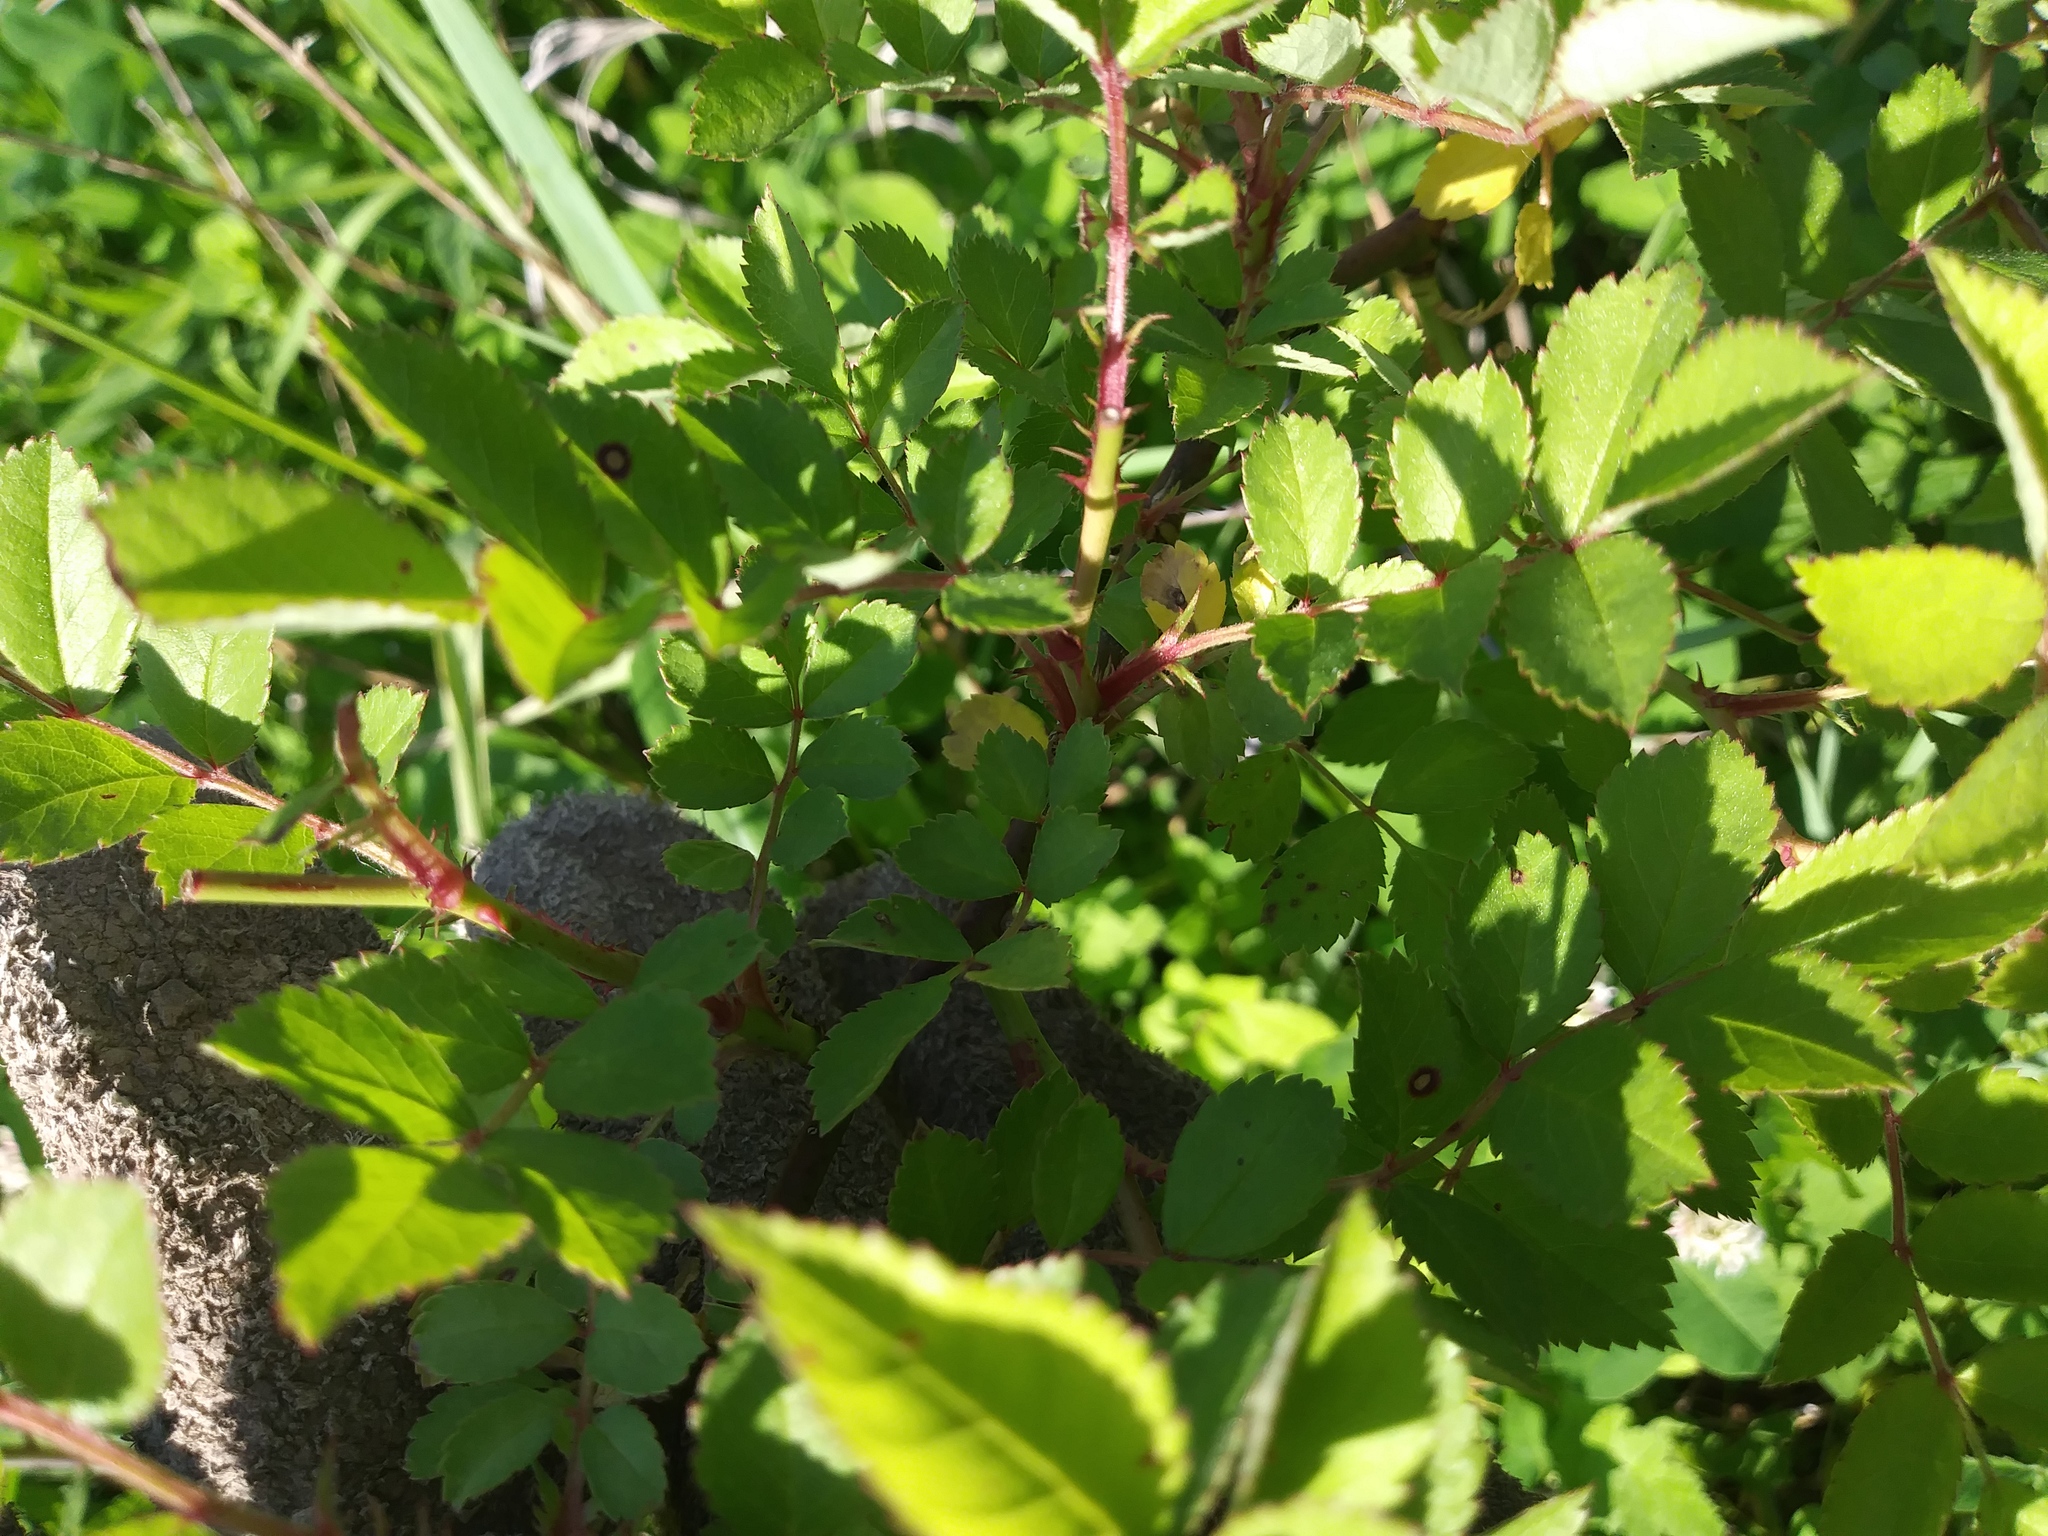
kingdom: Plantae
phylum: Tracheophyta
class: Magnoliopsida
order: Rosales
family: Rosaceae
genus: Rosa
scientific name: Rosa multiflora
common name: Multiflora rose
